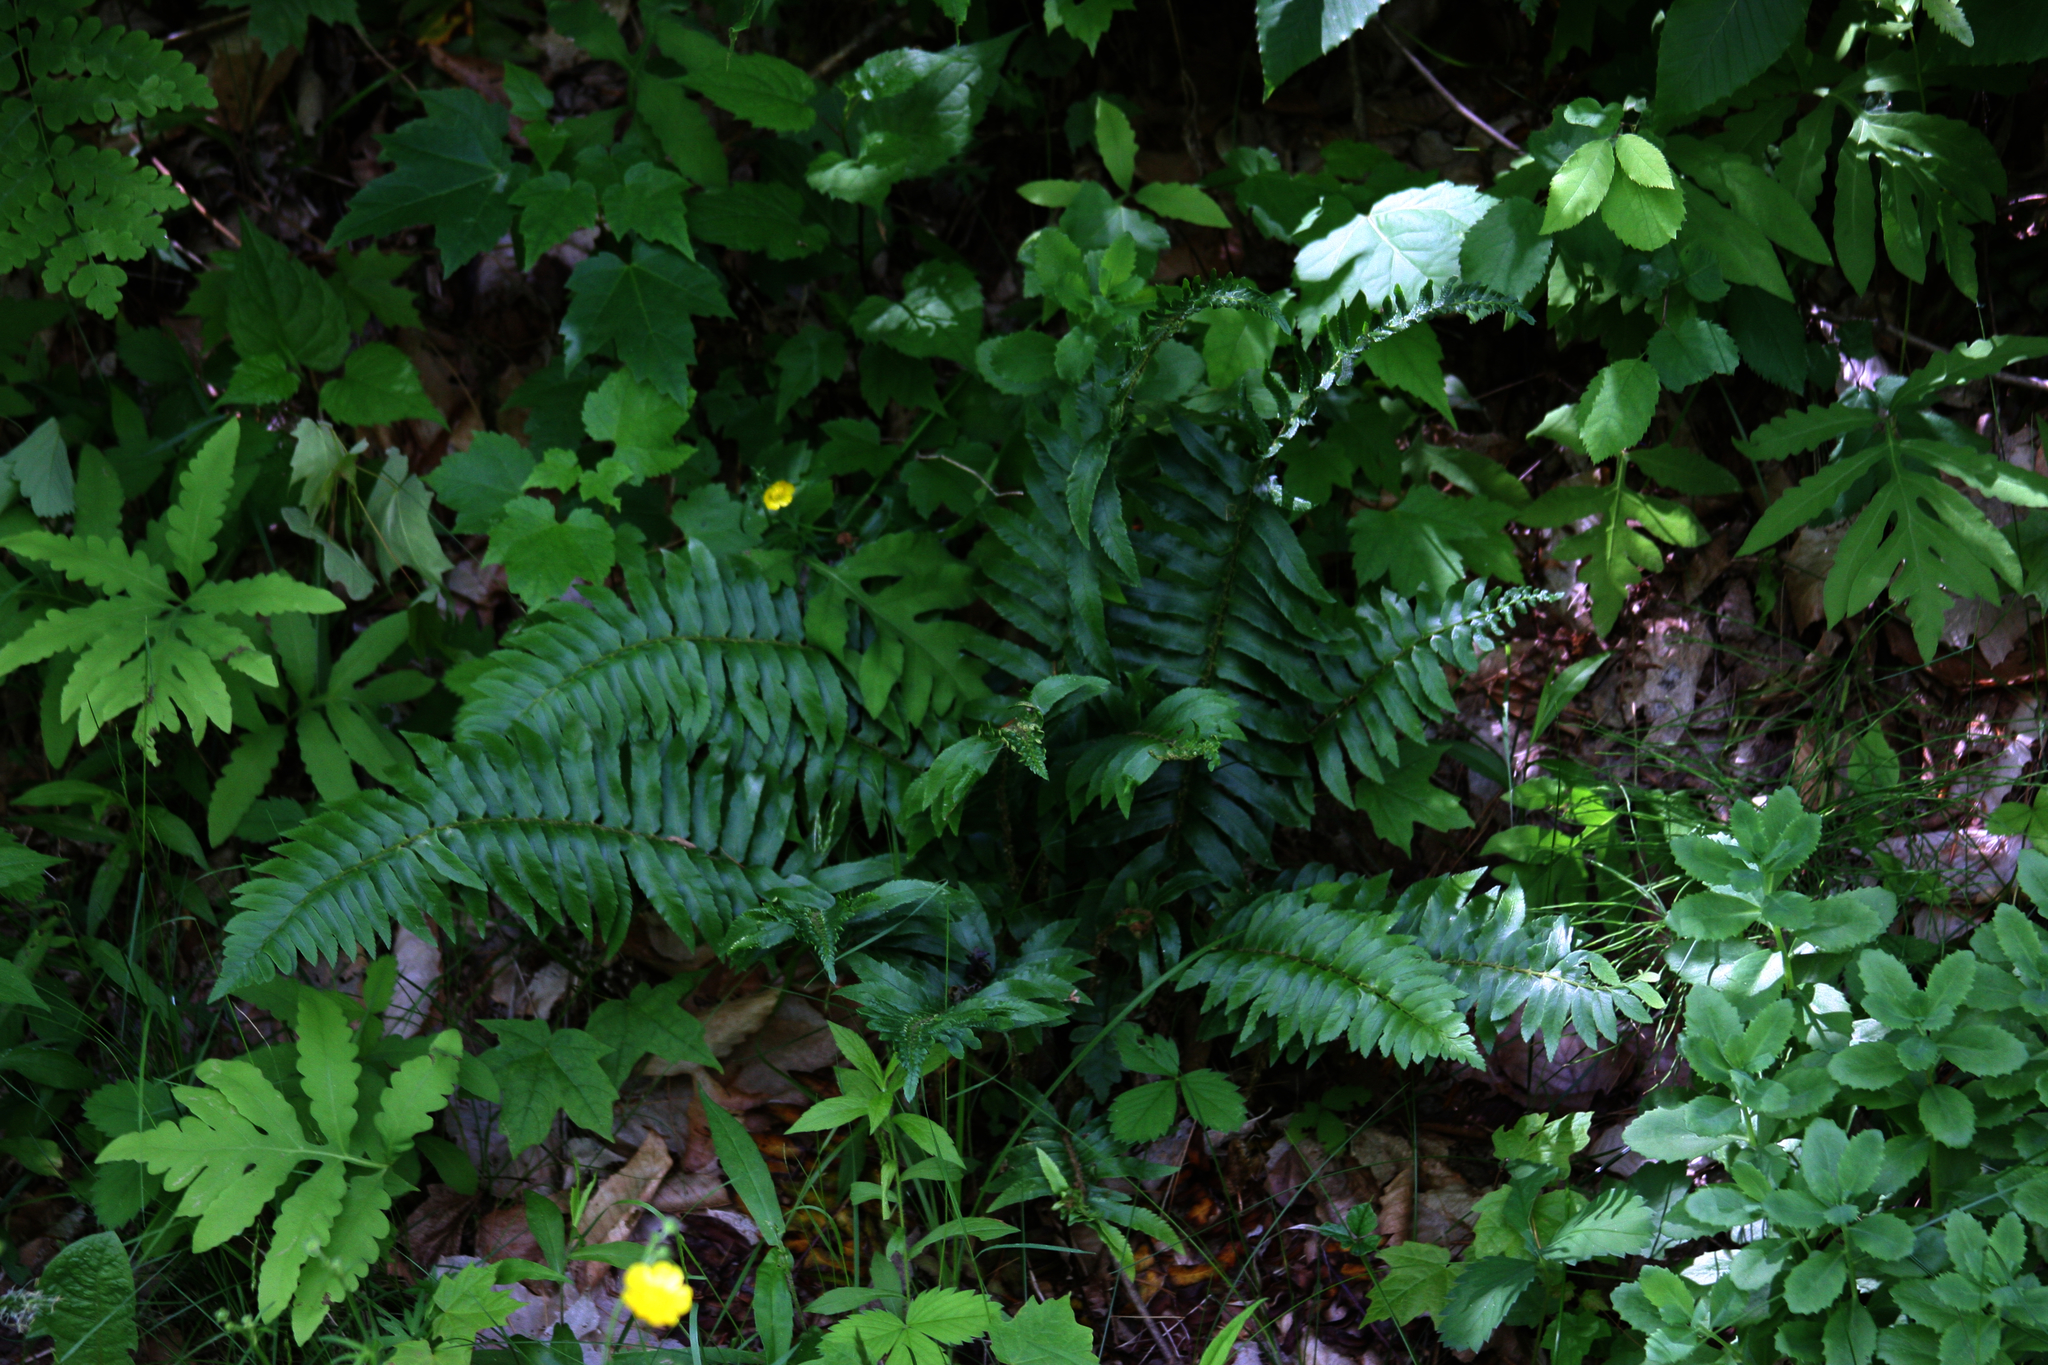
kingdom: Plantae
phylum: Tracheophyta
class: Polypodiopsida
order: Polypodiales
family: Dryopteridaceae
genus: Polystichum
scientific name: Polystichum acrostichoides
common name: Christmas fern
